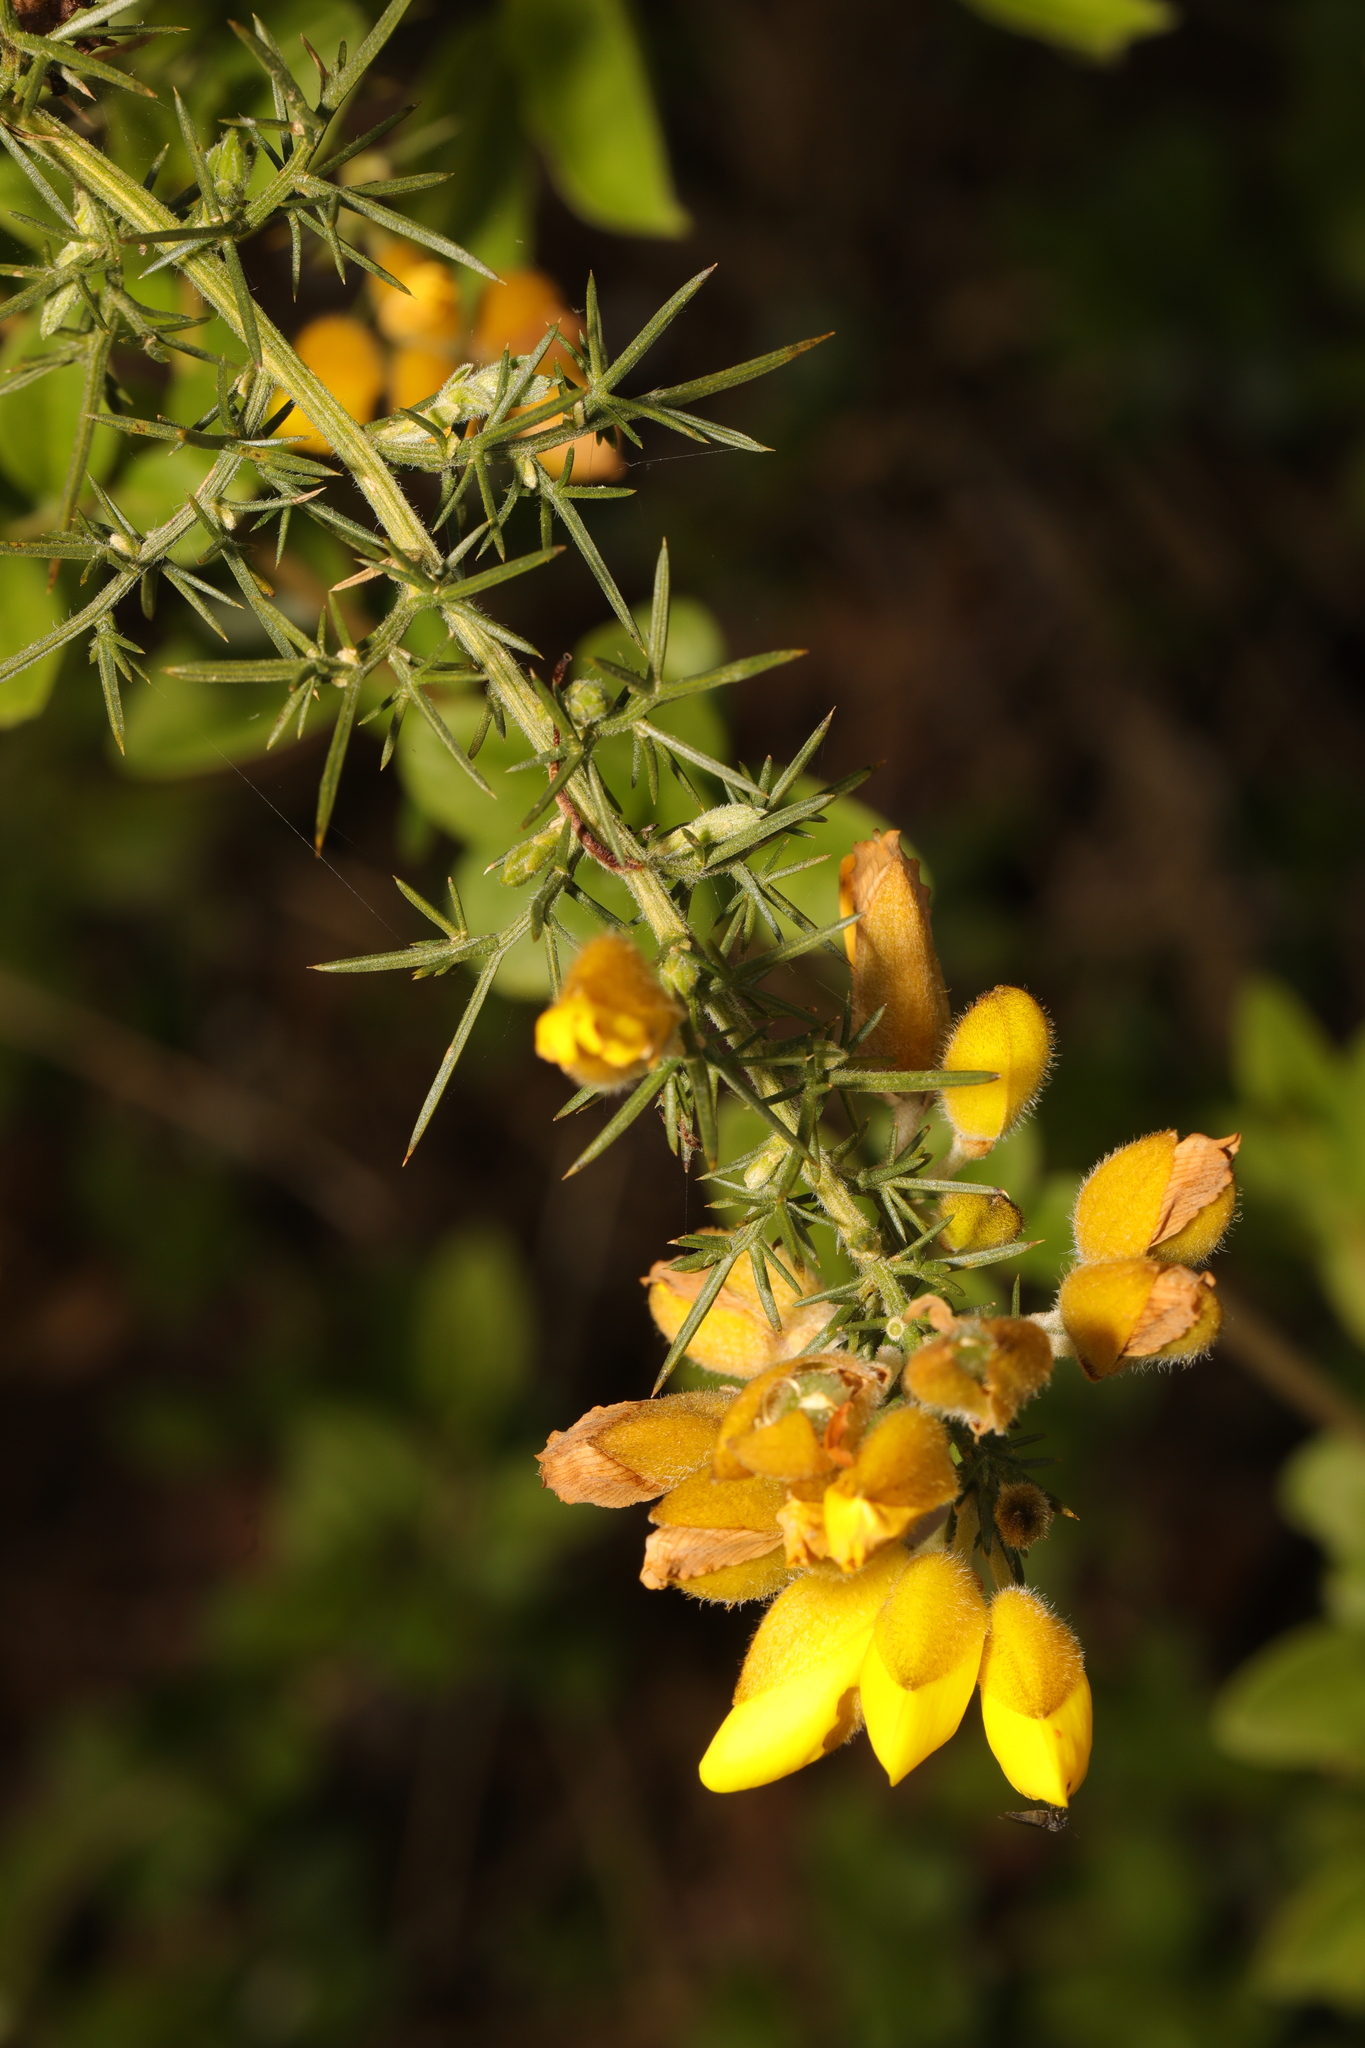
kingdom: Plantae
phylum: Tracheophyta
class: Magnoliopsida
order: Fabales
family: Fabaceae
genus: Ulex
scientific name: Ulex europaeus
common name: Common gorse
